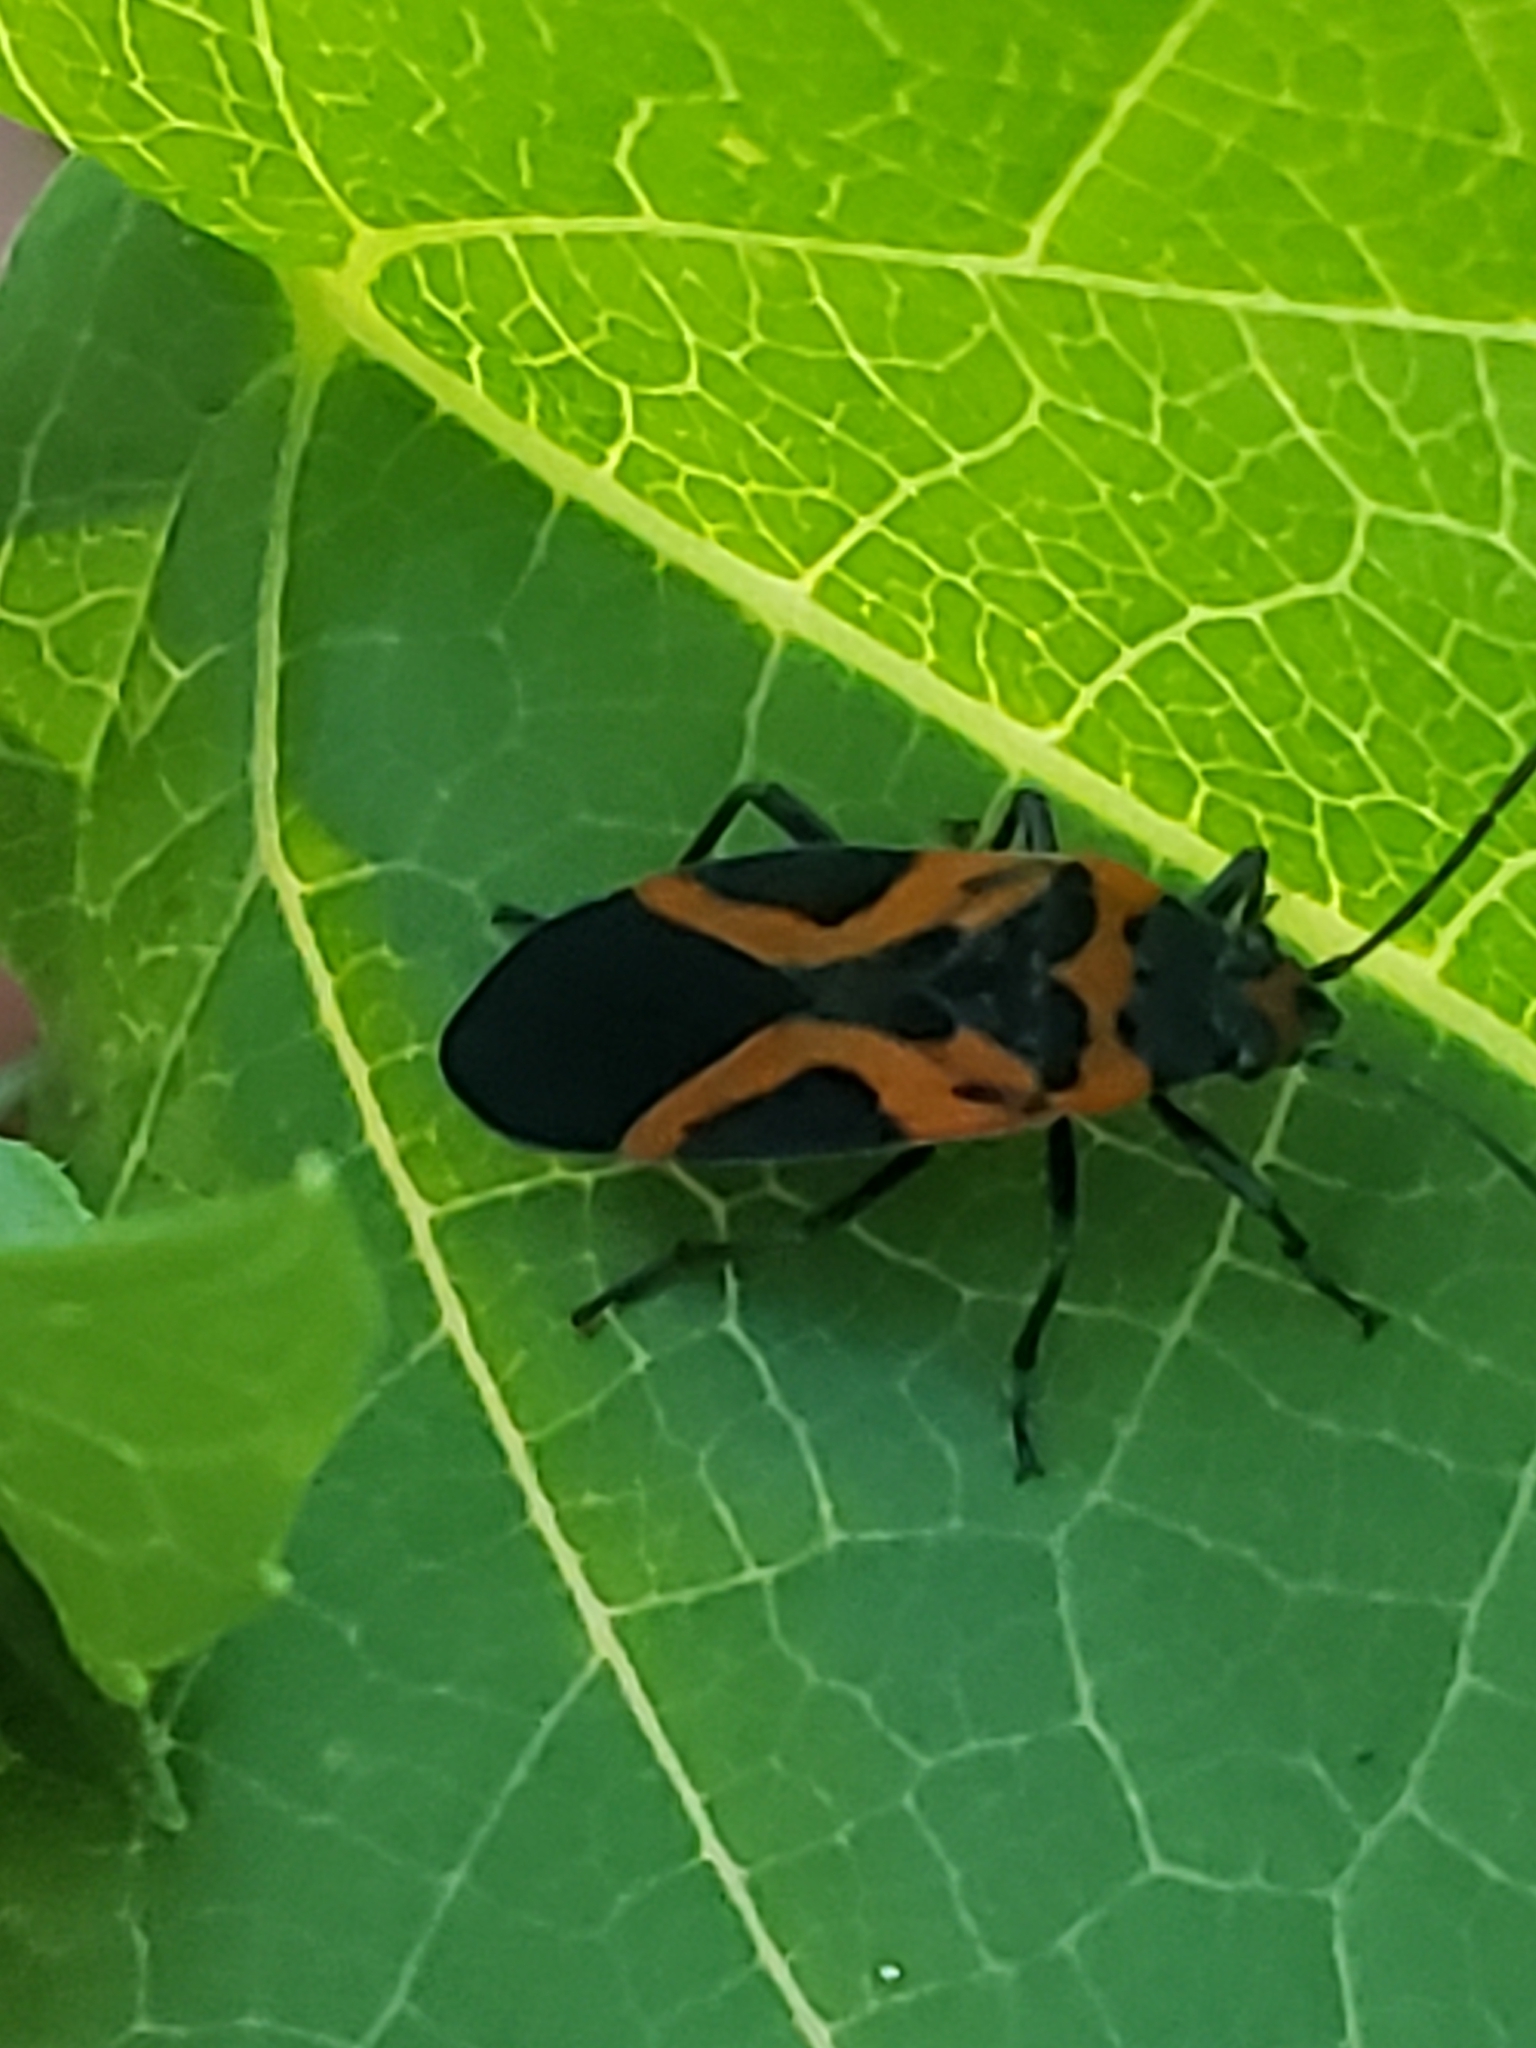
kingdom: Animalia
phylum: Arthropoda
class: Insecta
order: Hemiptera
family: Lygaeidae
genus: Lygaeus
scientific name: Lygaeus turcicus
